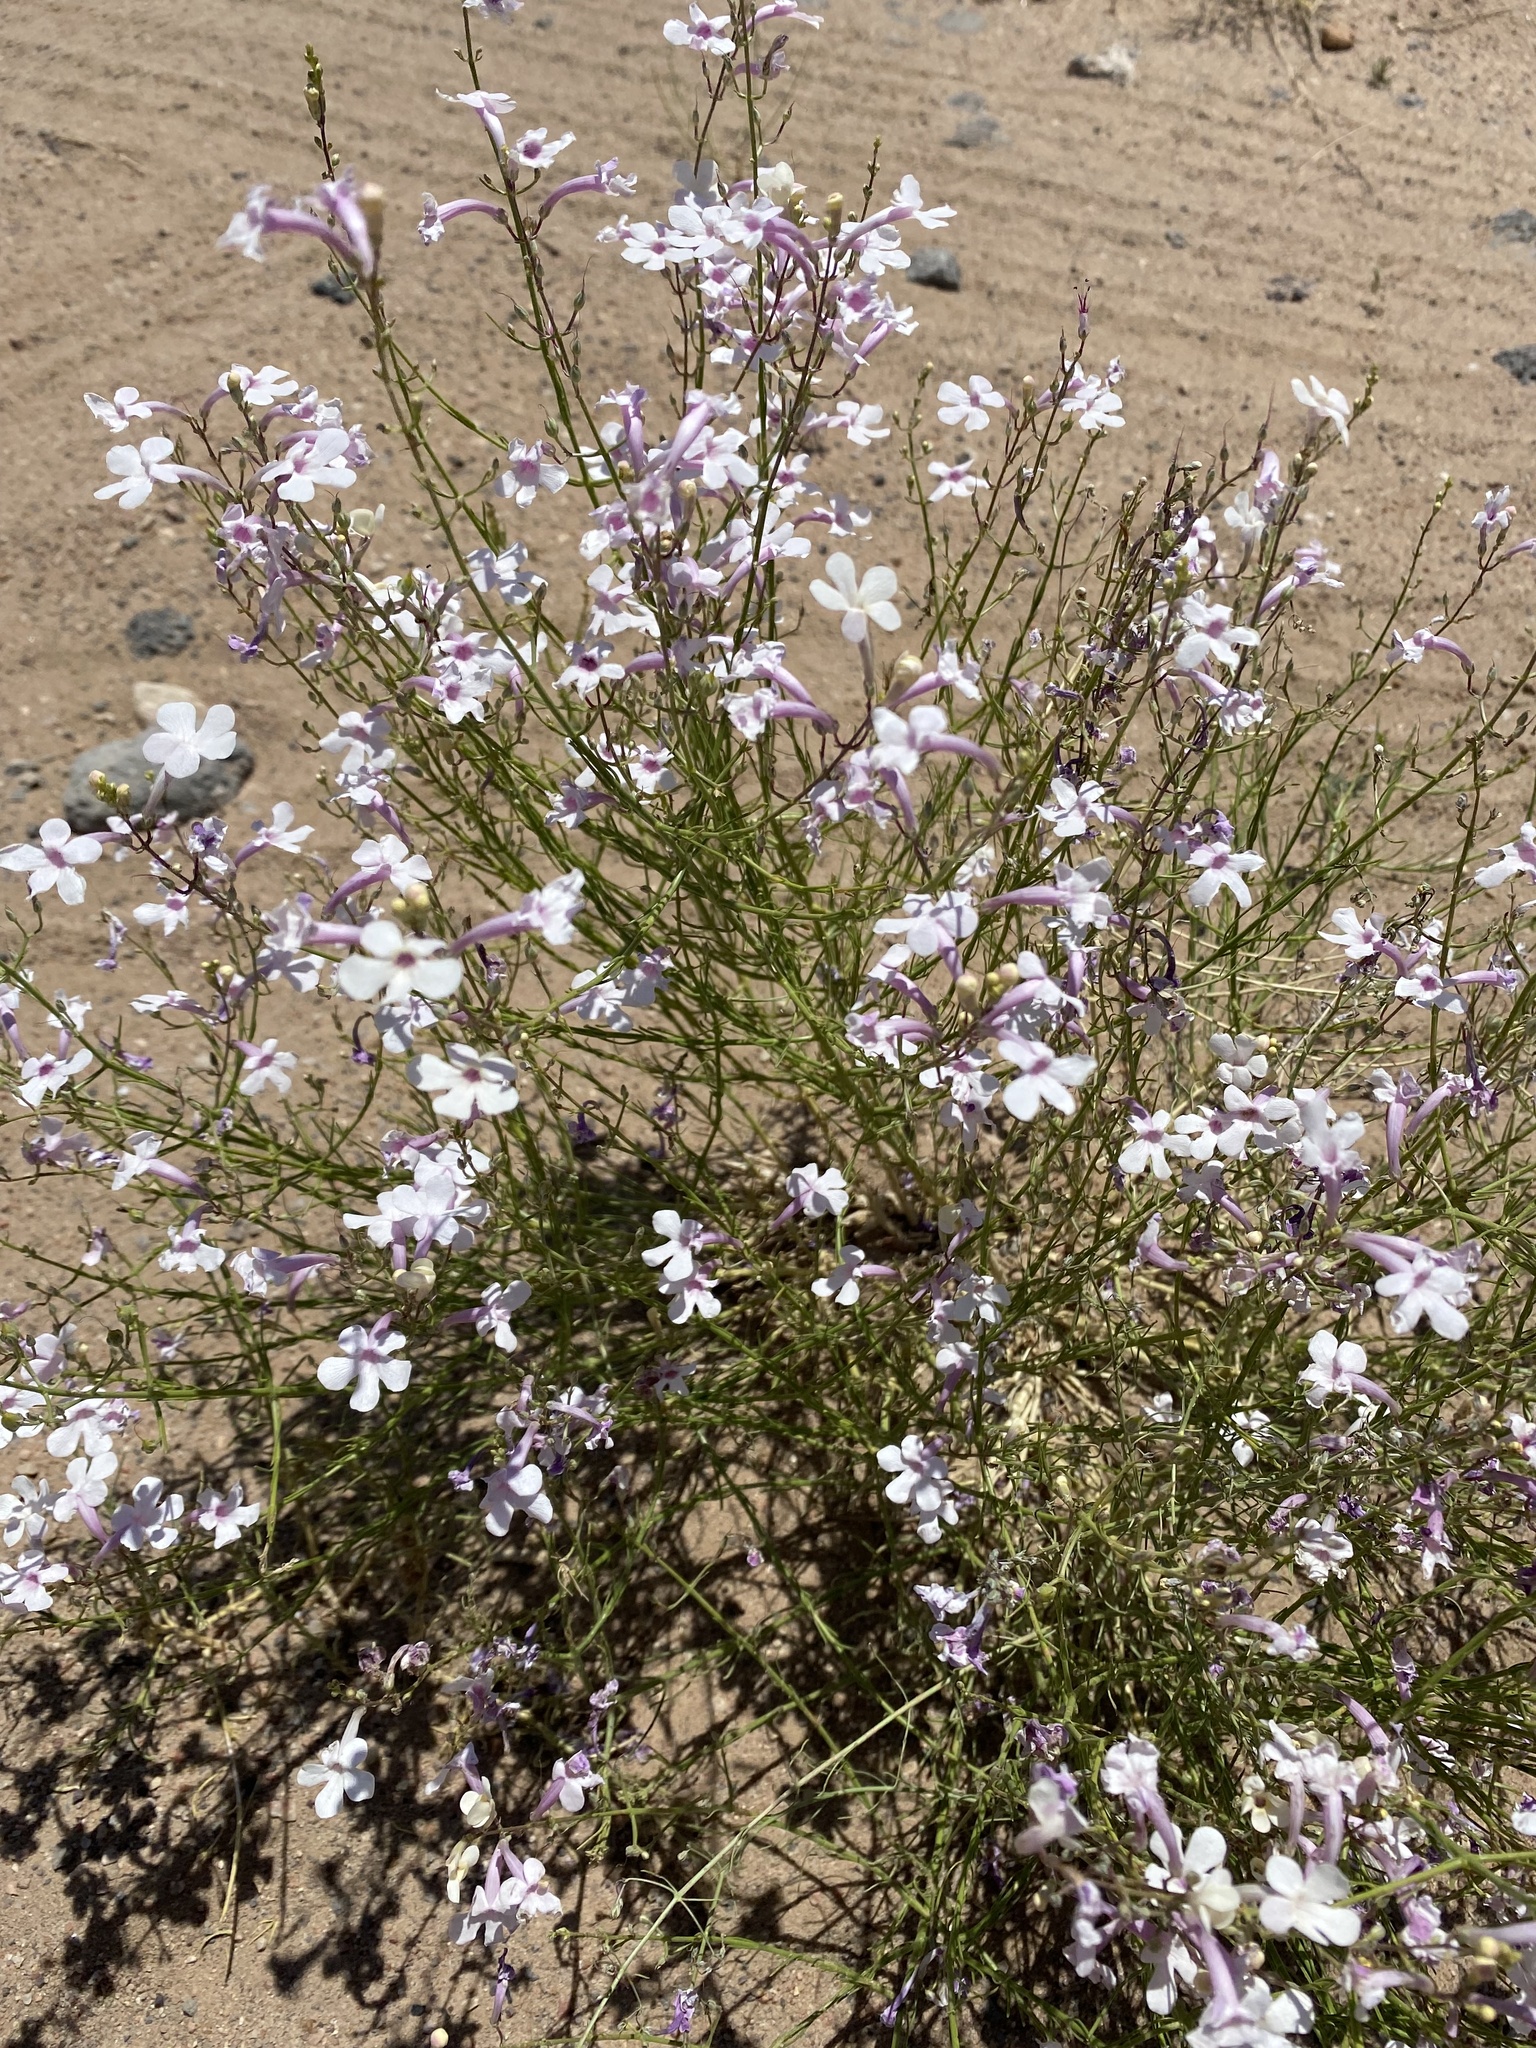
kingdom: Plantae
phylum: Tracheophyta
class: Magnoliopsida
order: Lamiales
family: Plantaginaceae
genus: Penstemon
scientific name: Penstemon ambiguus
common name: Bush penstemon
